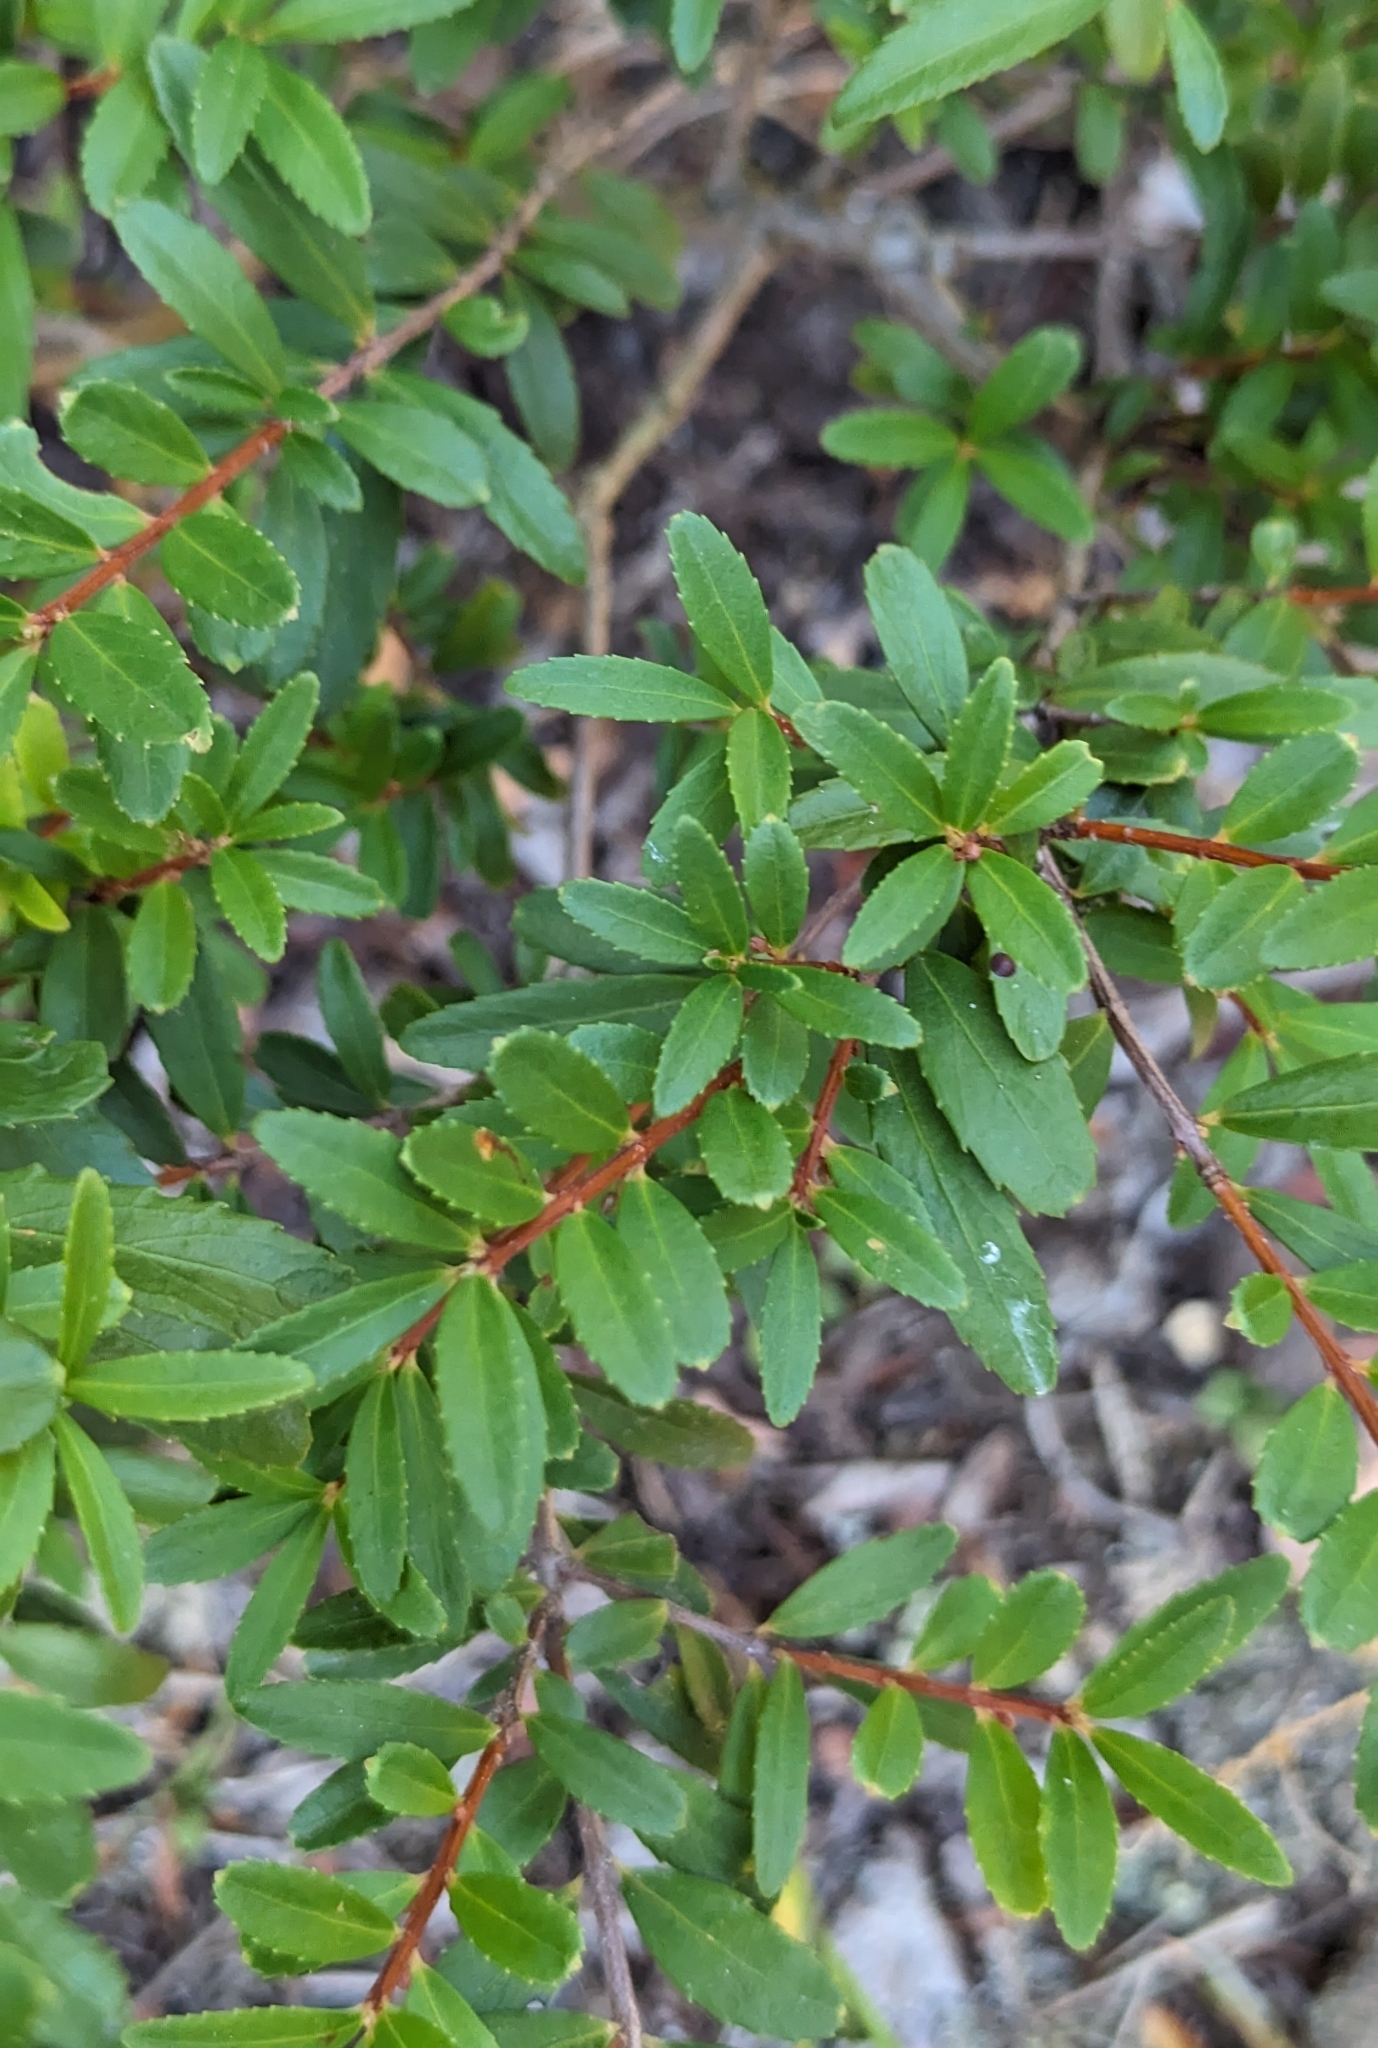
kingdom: Plantae
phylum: Tracheophyta
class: Magnoliopsida
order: Celastrales
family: Celastraceae
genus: Paxistima
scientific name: Paxistima myrsinites
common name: Mountain-lover
